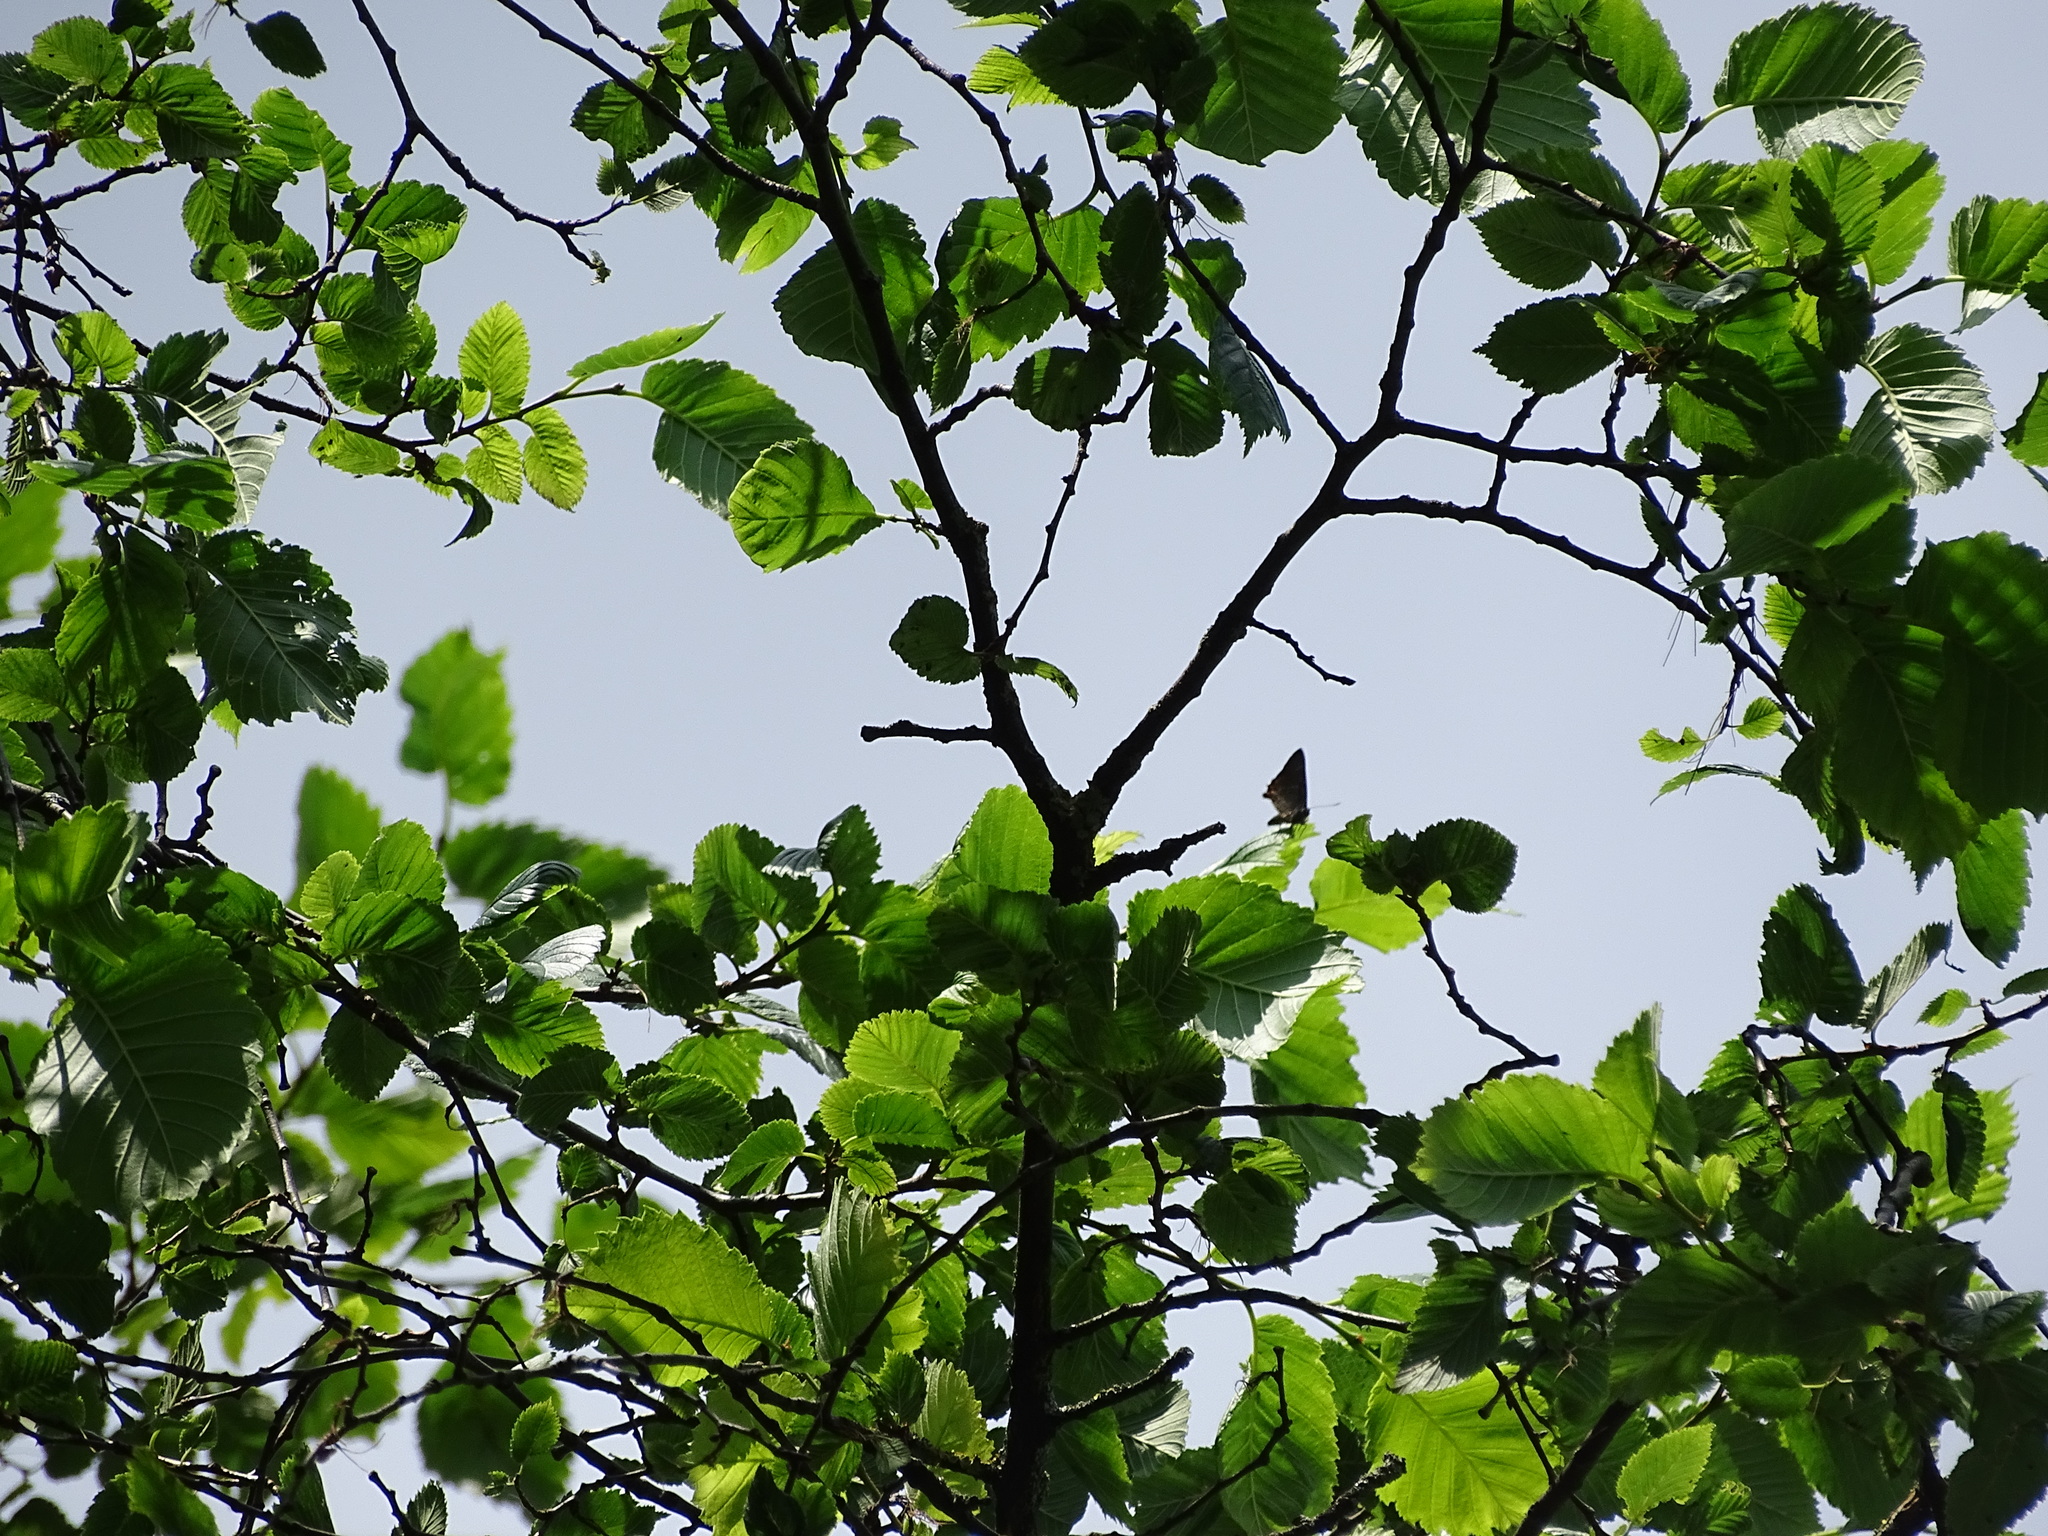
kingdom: Animalia
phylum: Arthropoda
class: Insecta
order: Lepidoptera
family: Lycaenidae
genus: Satyrium
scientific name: Satyrium w-album
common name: White-letter hairstreak
